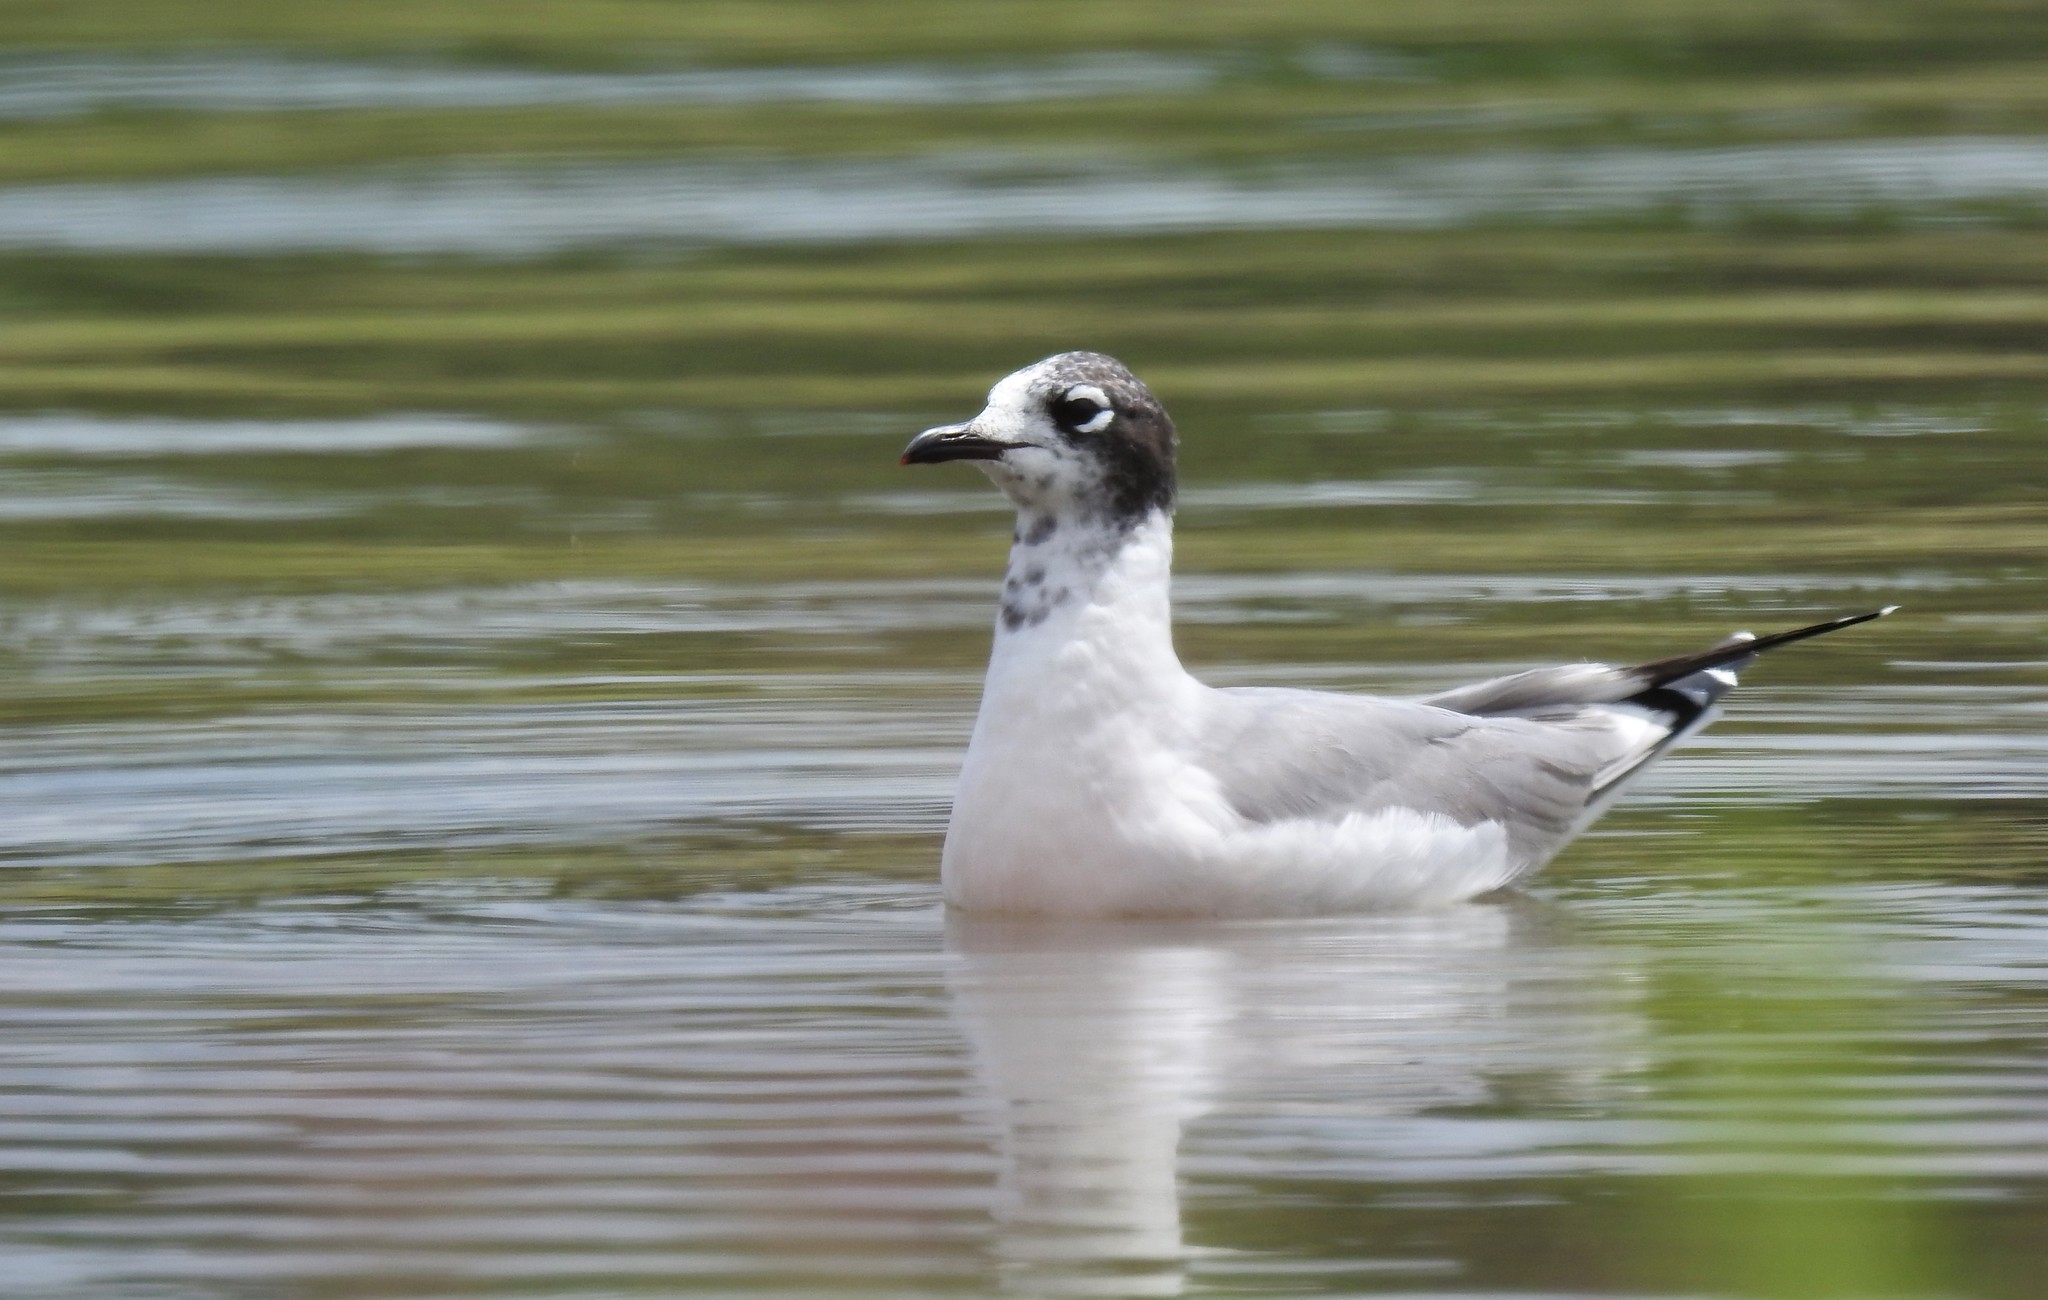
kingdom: Animalia
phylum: Chordata
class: Aves
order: Charadriiformes
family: Laridae
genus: Leucophaeus
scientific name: Leucophaeus pipixcan
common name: Franklin's gull
